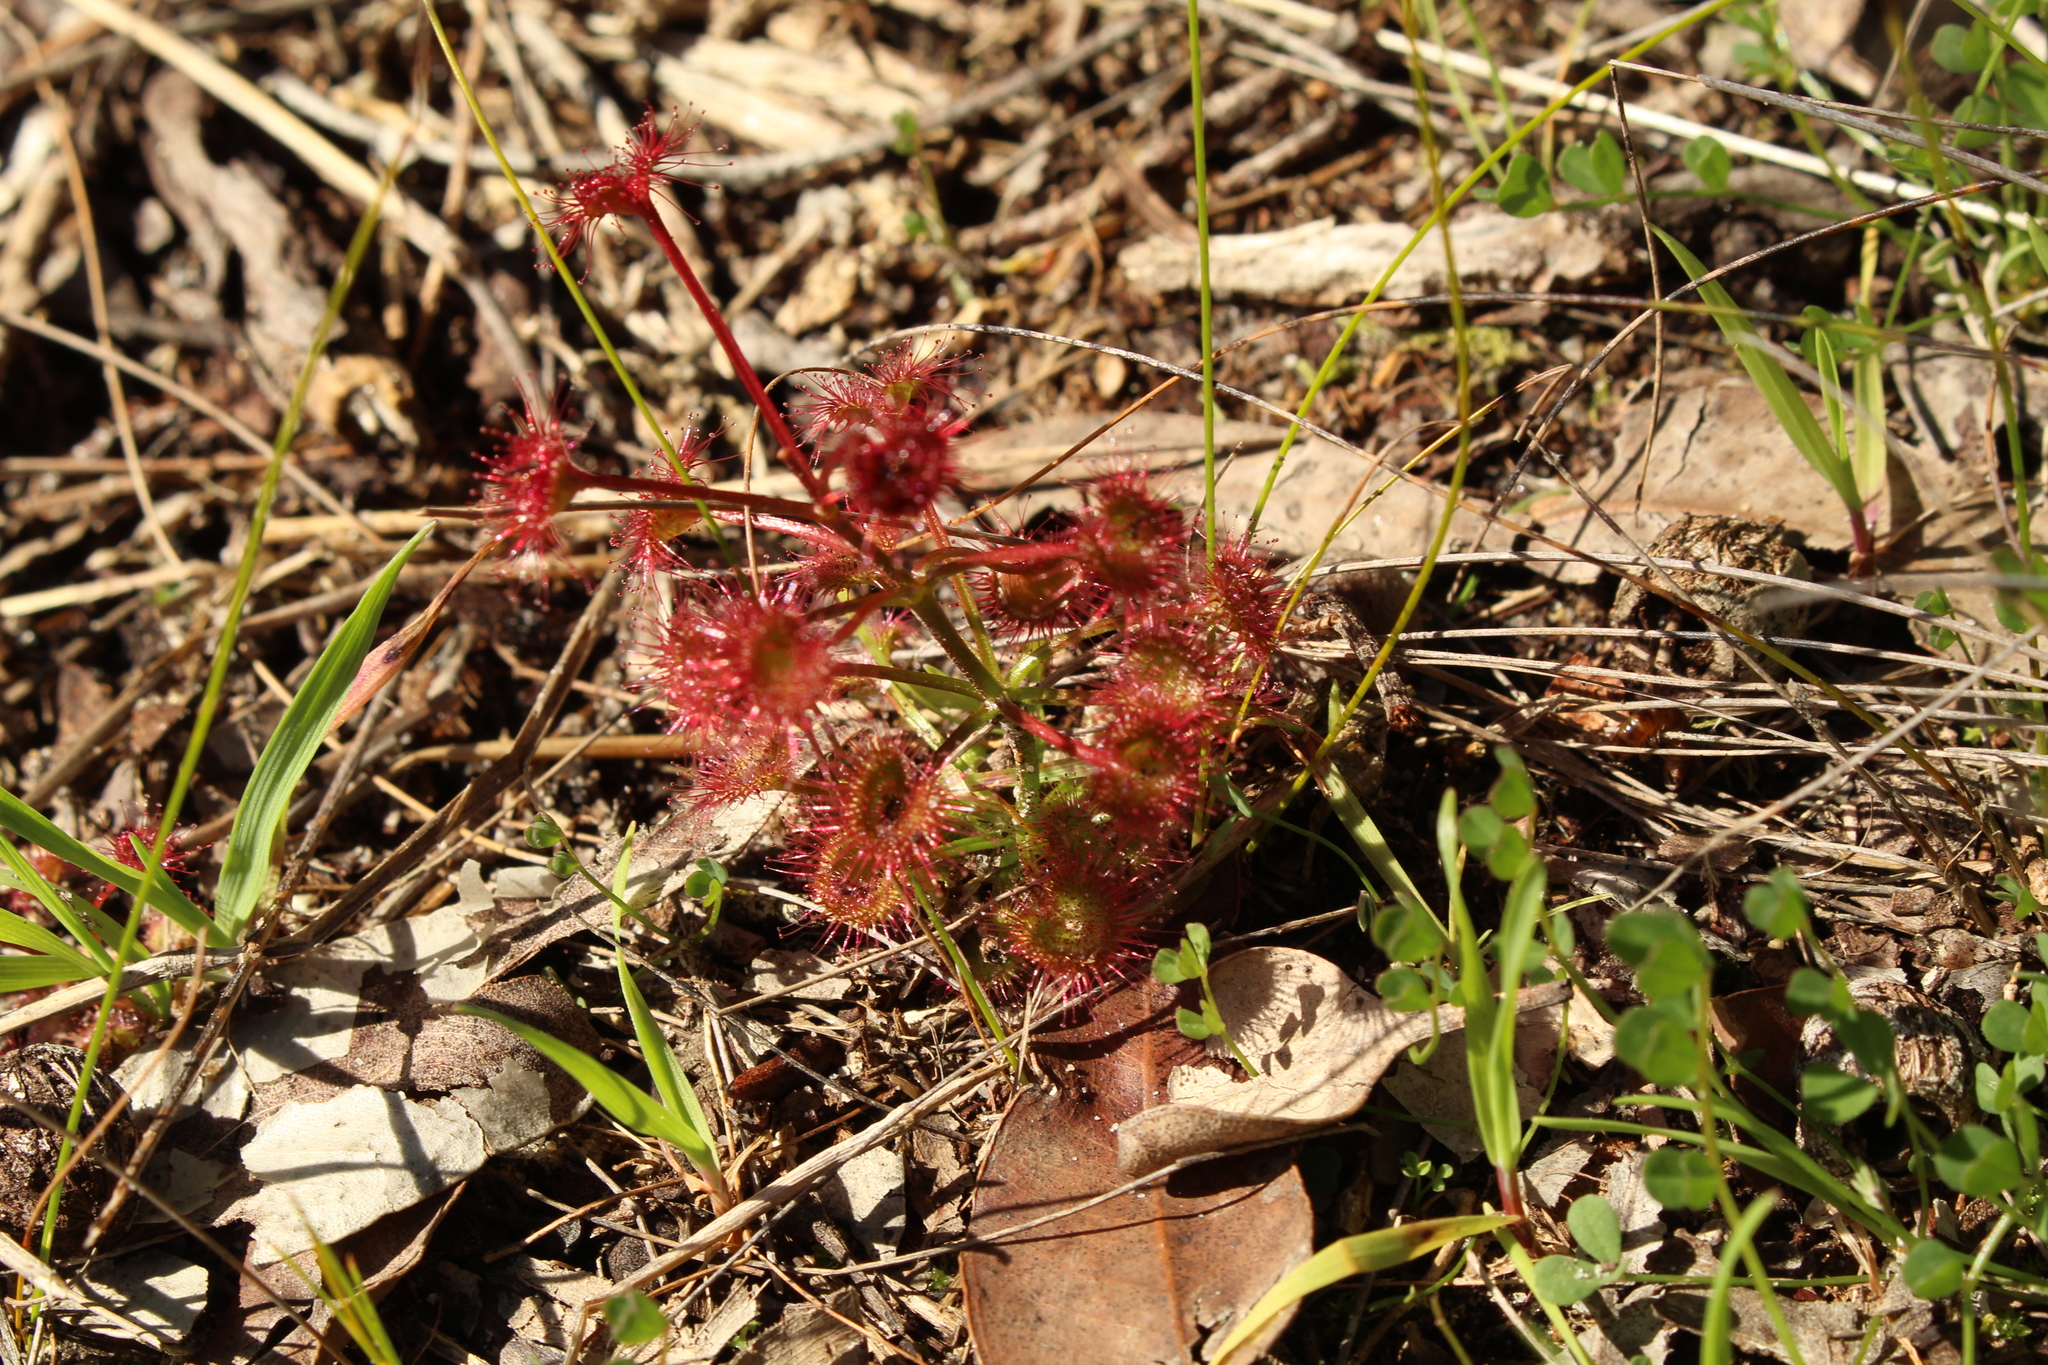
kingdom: Plantae
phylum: Tracheophyta
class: Magnoliopsida
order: Caryophyllales
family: Droseraceae
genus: Drosera
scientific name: Drosera stolonifera
